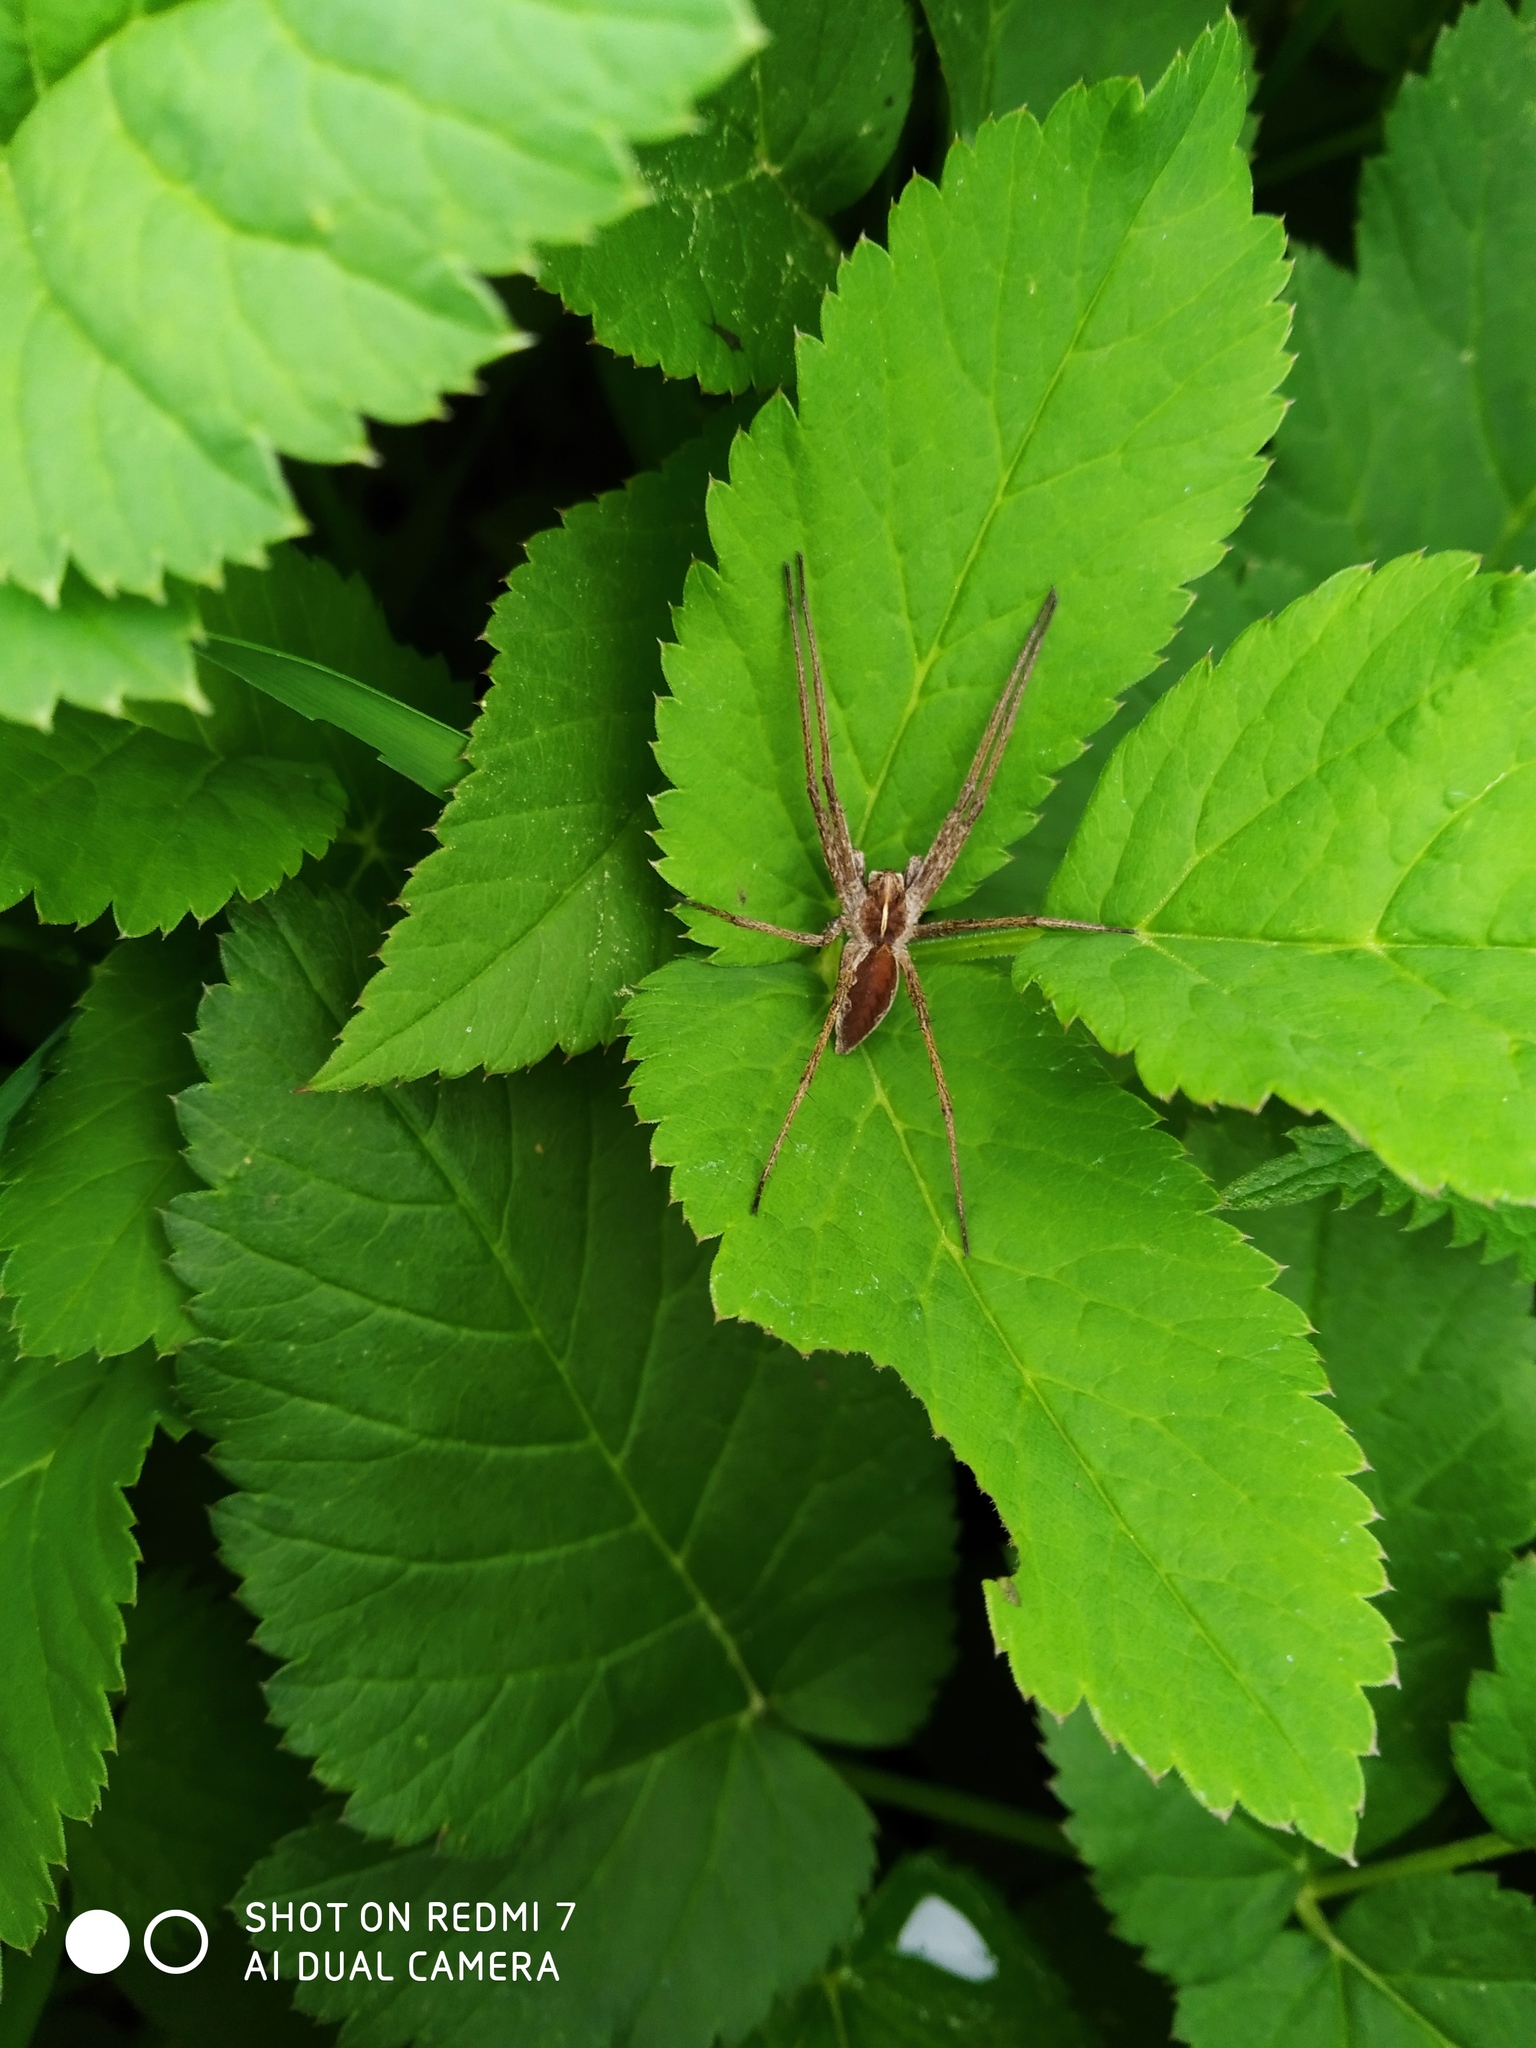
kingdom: Animalia
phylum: Arthropoda
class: Arachnida
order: Araneae
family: Pisauridae
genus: Pisaura
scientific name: Pisaura mirabilis
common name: Tent spider
